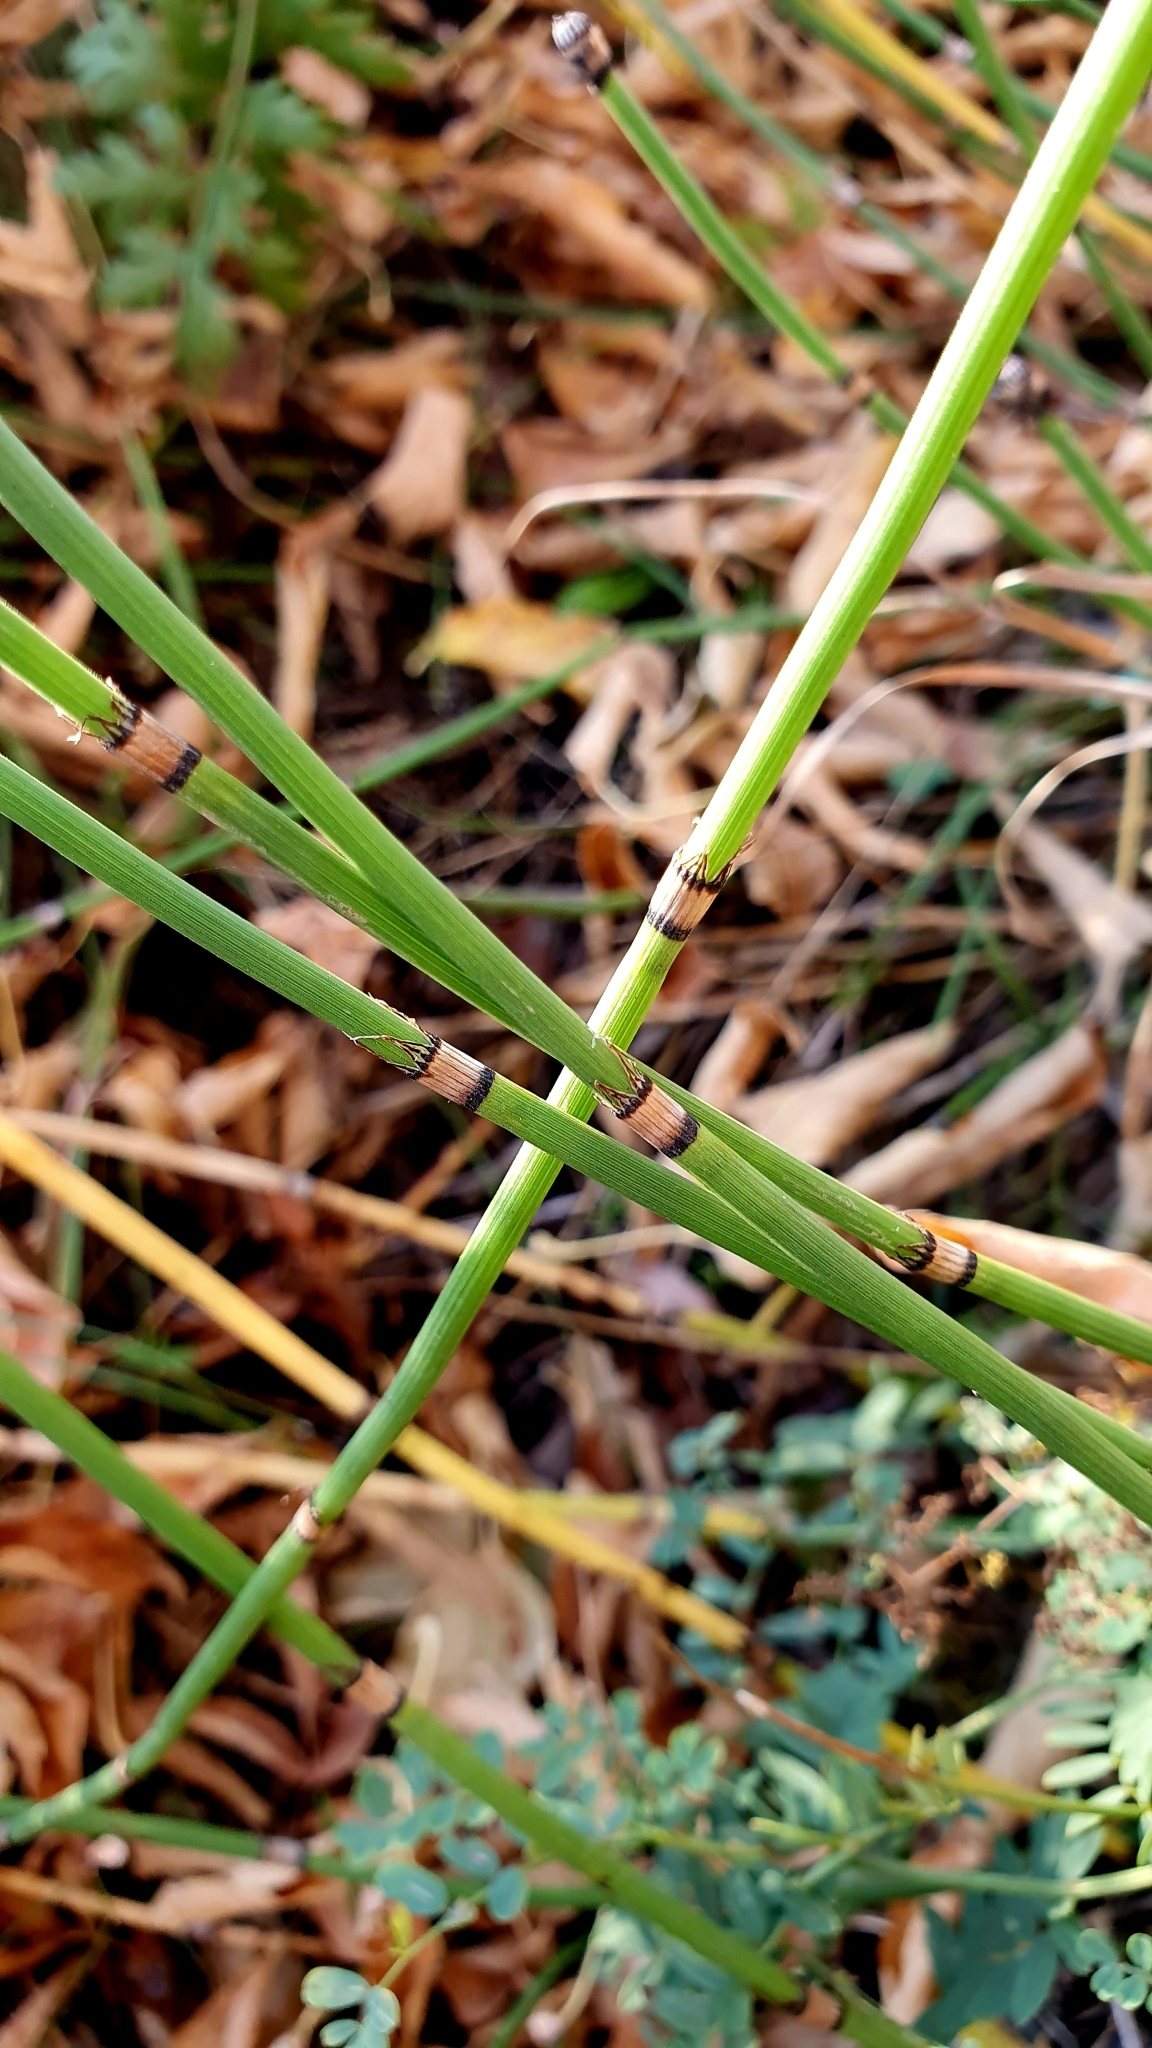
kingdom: Plantae
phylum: Tracheophyta
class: Polypodiopsida
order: Equisetales
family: Equisetaceae
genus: Equisetum
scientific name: Equisetum hyemale
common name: Rough horsetail
